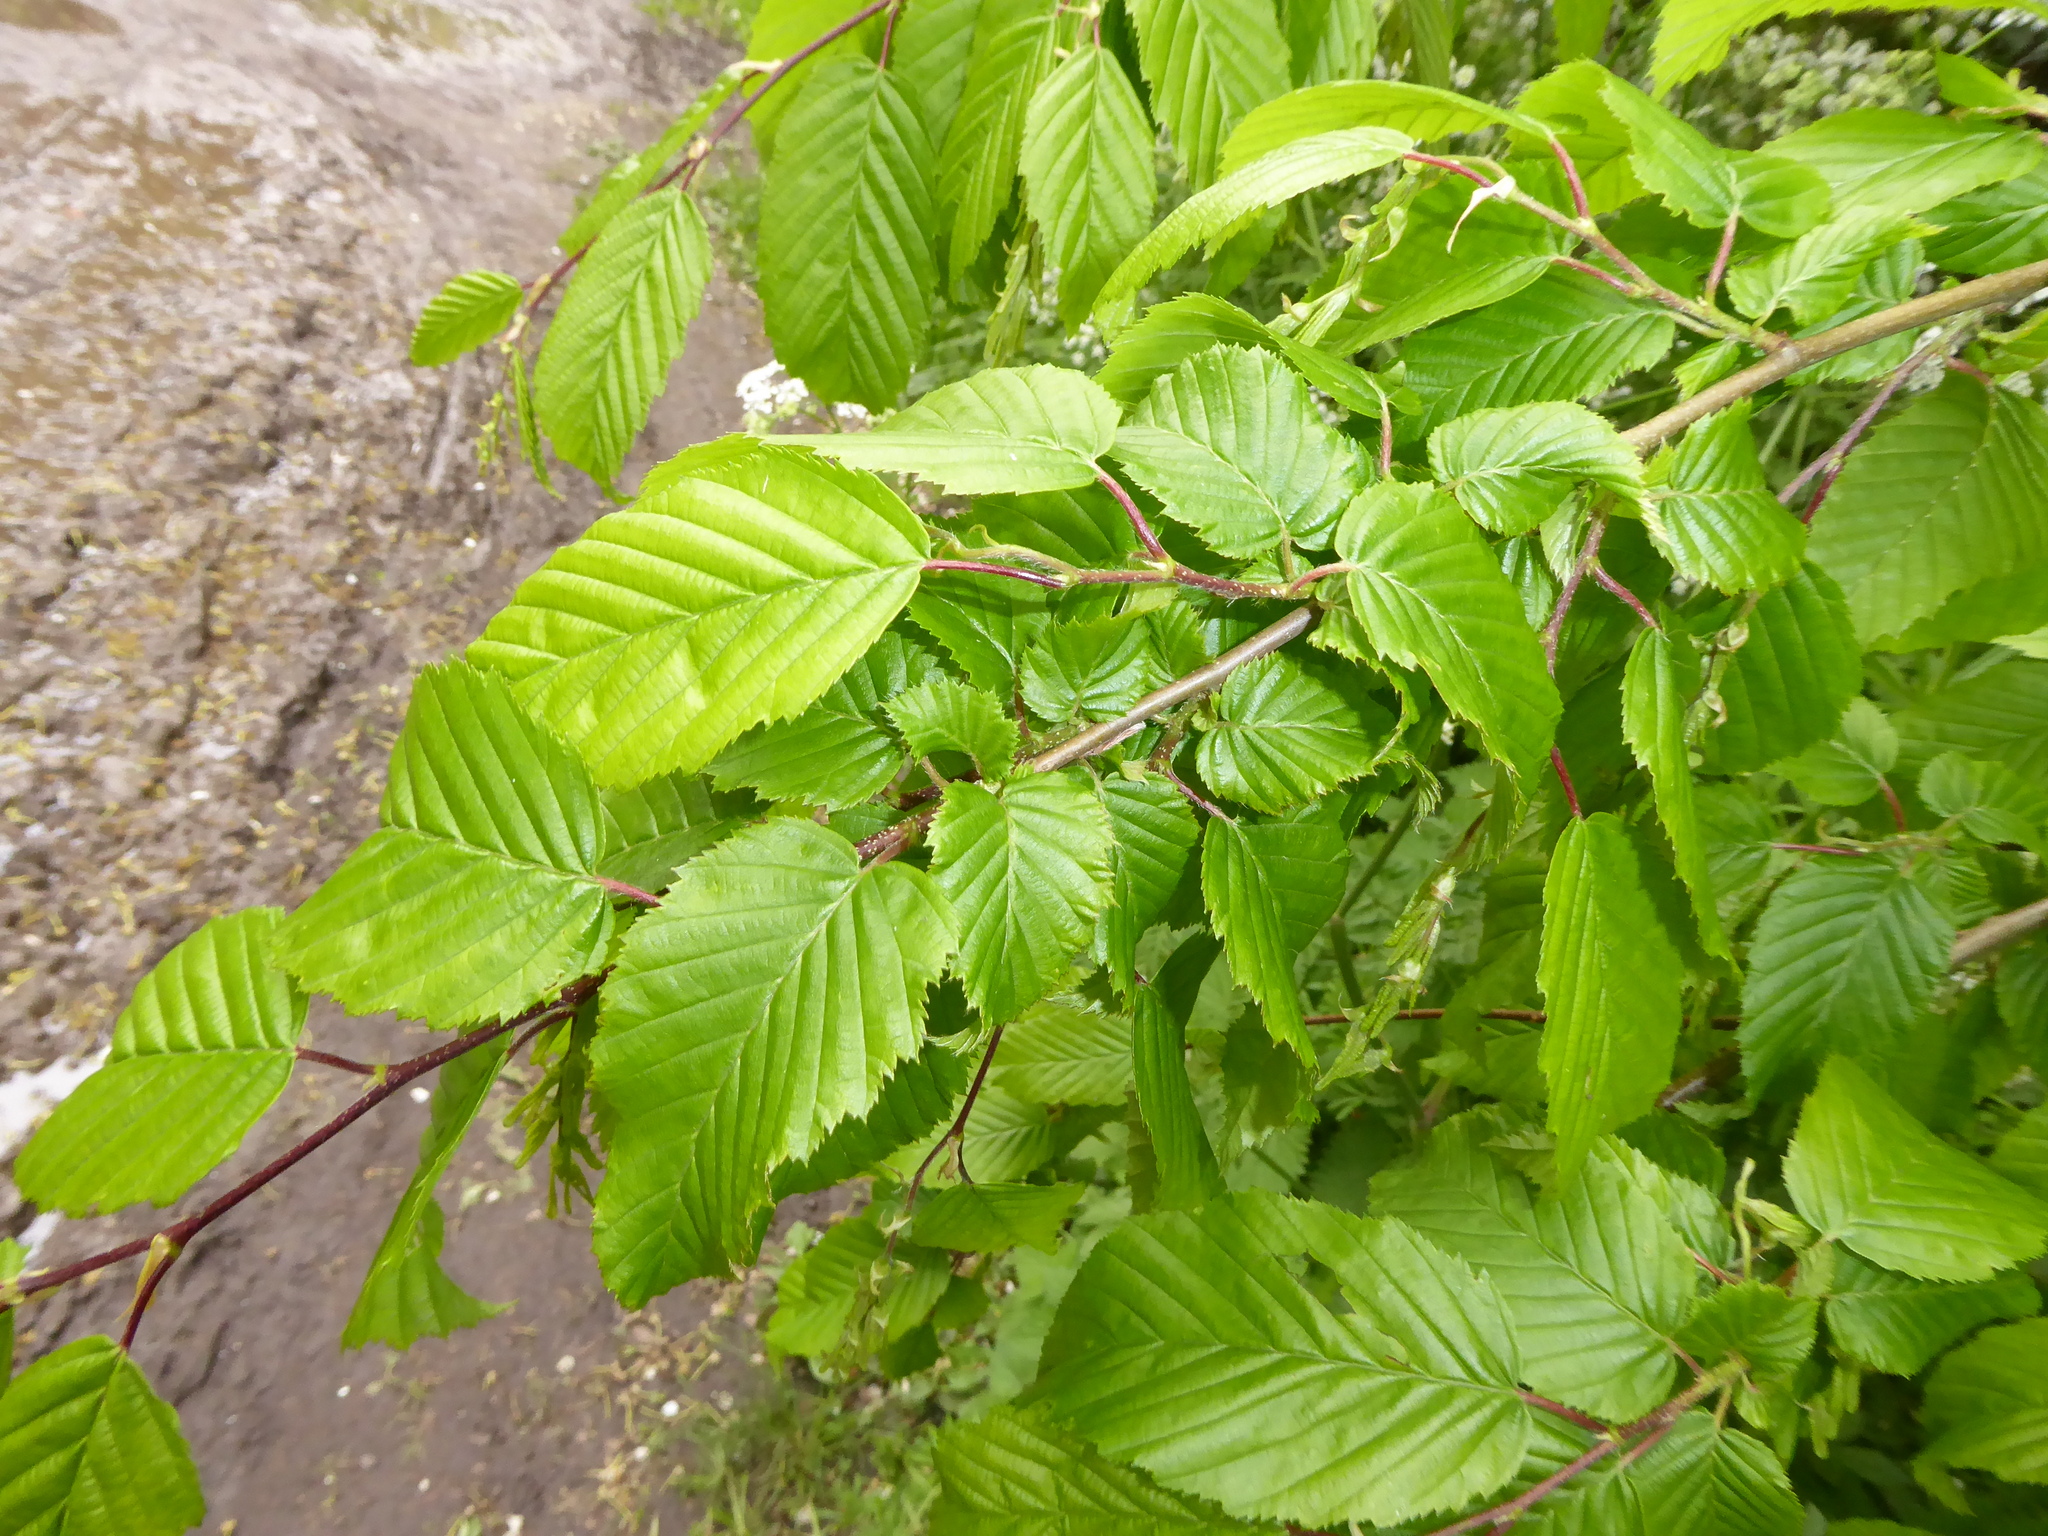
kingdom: Plantae
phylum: Tracheophyta
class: Magnoliopsida
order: Fagales
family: Betulaceae
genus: Carpinus
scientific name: Carpinus betulus
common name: Hornbeam
